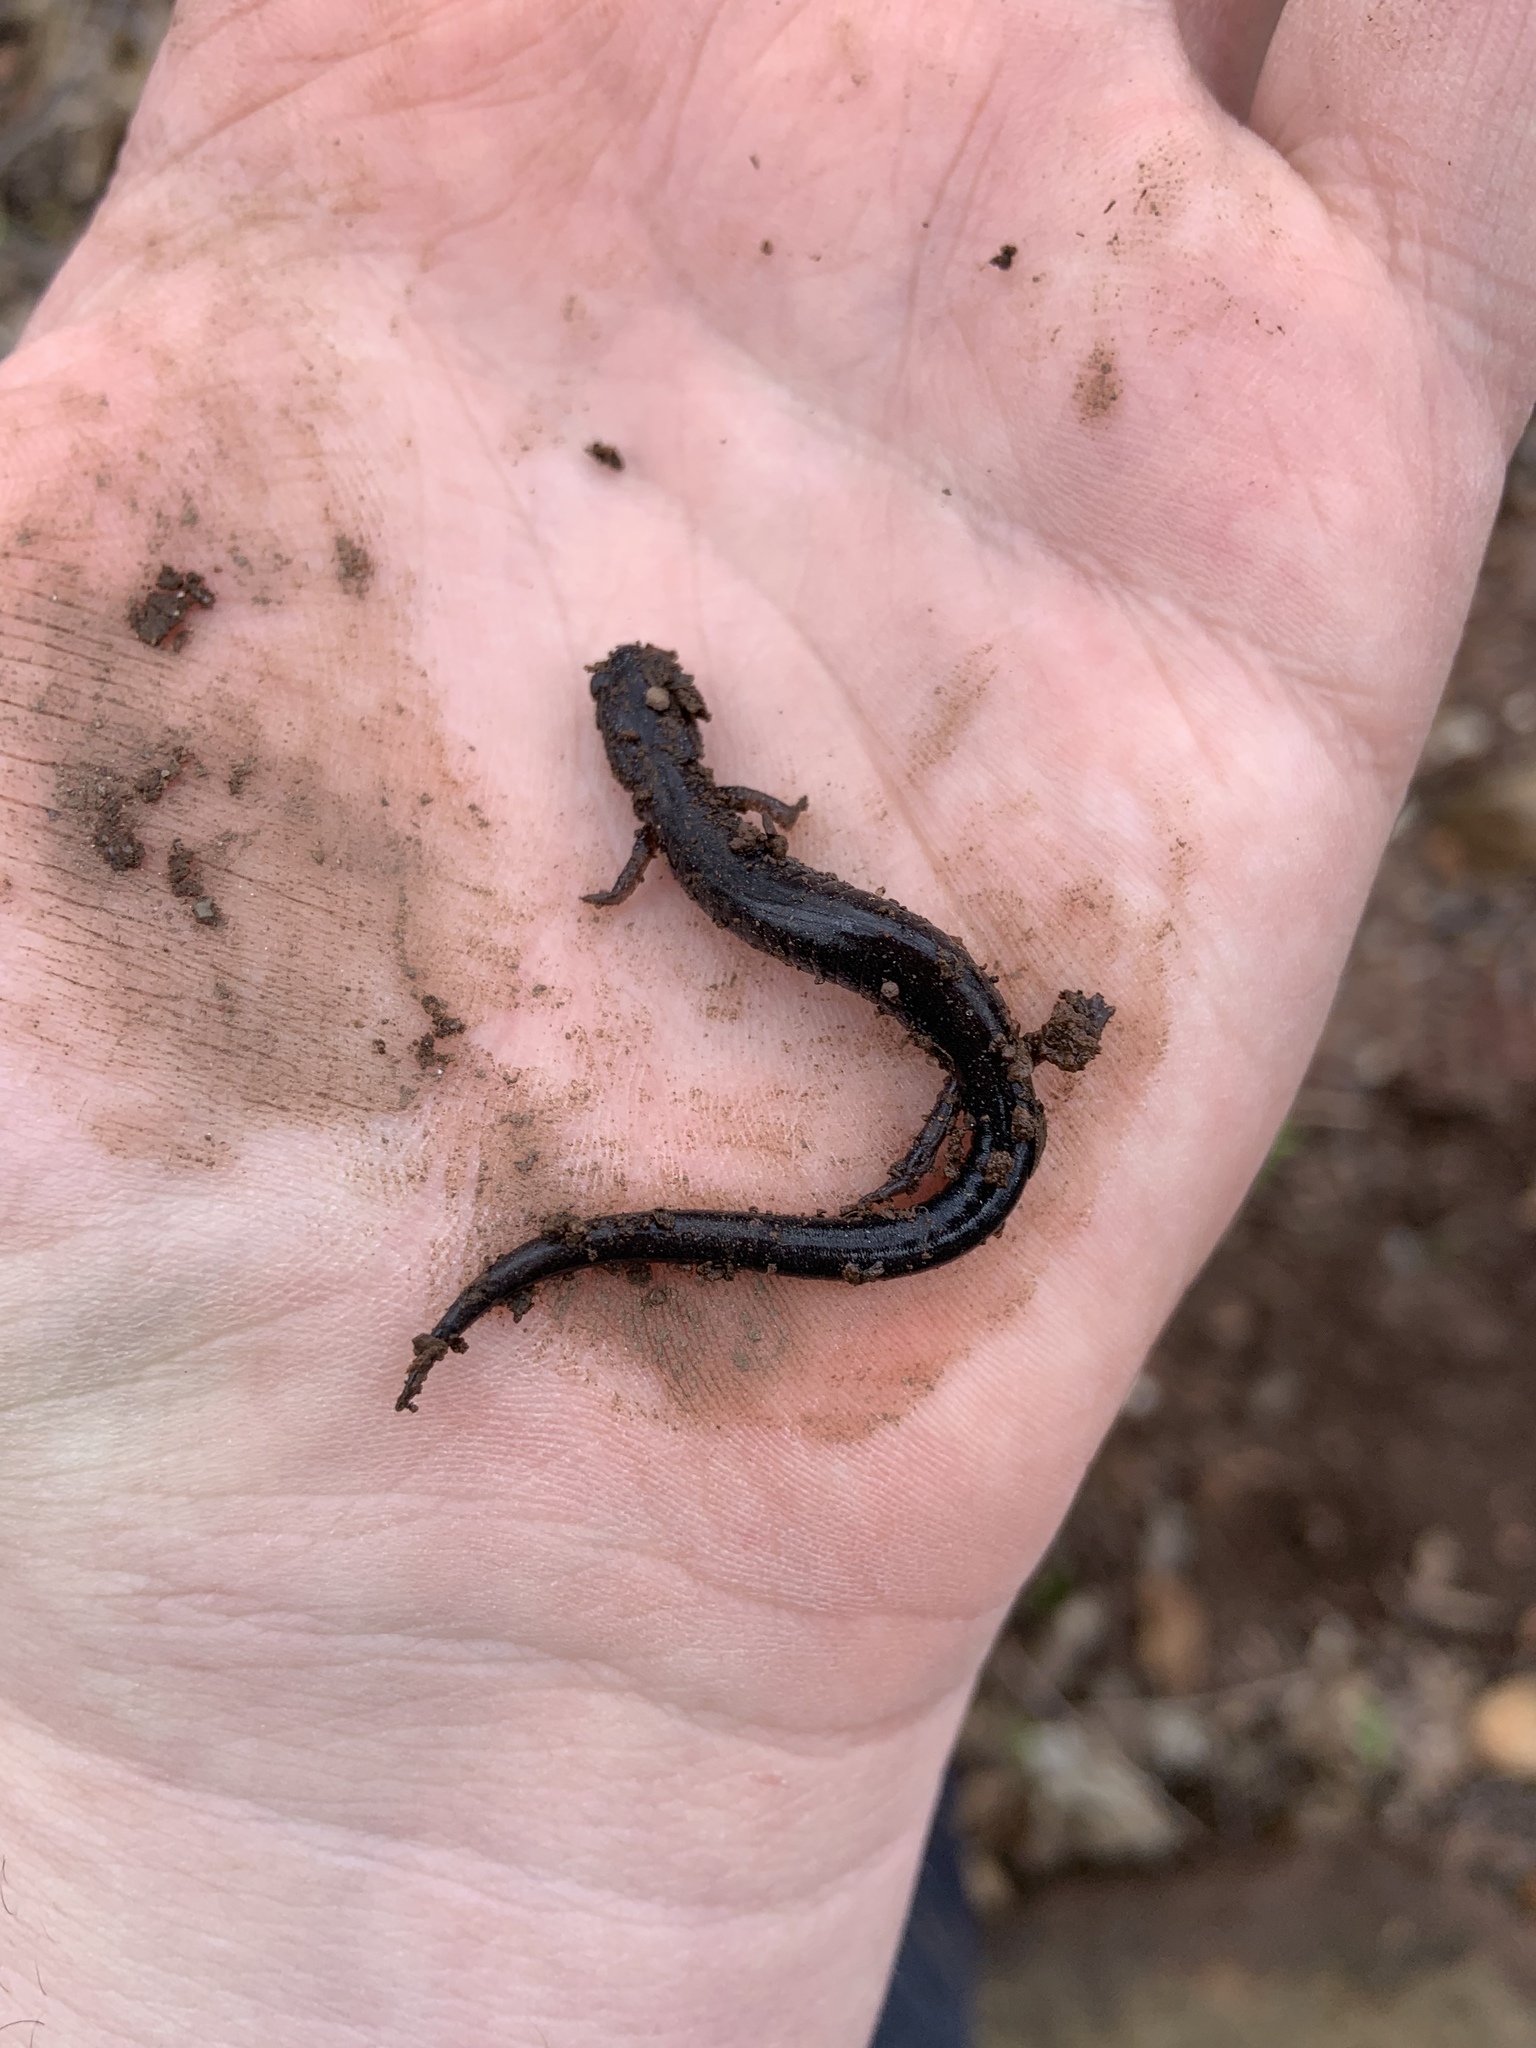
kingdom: Animalia
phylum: Chordata
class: Amphibia
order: Caudata
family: Plethodontidae
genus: Plethodon
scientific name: Plethodon cinereus
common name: Redback salamander
